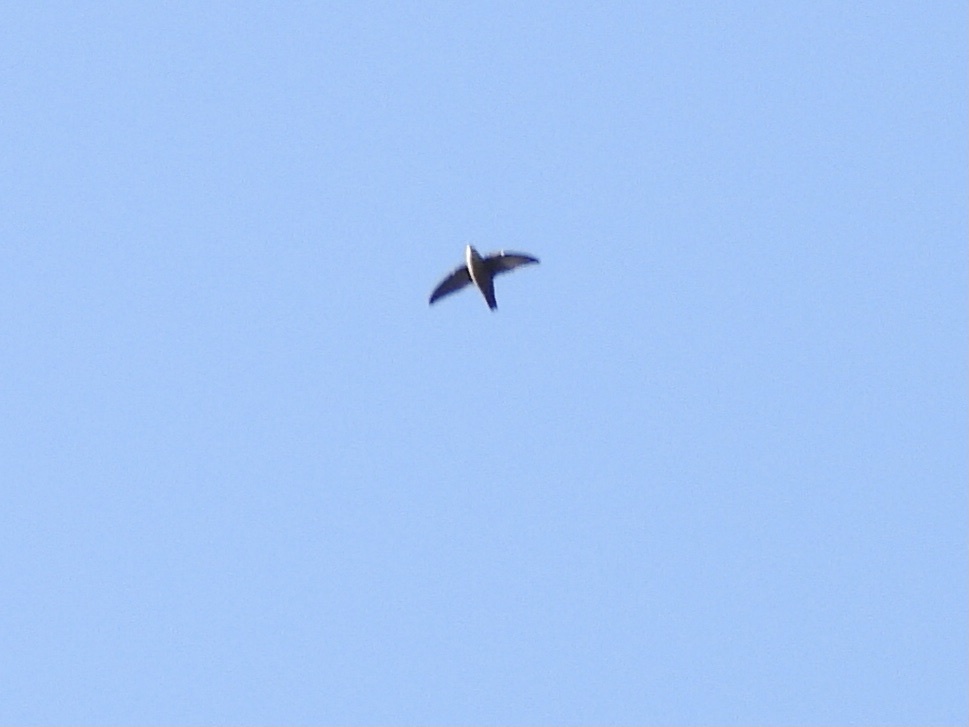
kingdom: Animalia
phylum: Chordata
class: Aves
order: Apodiformes
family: Apodidae
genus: Chaetura
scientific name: Chaetura vauxi
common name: Vaux's swift
